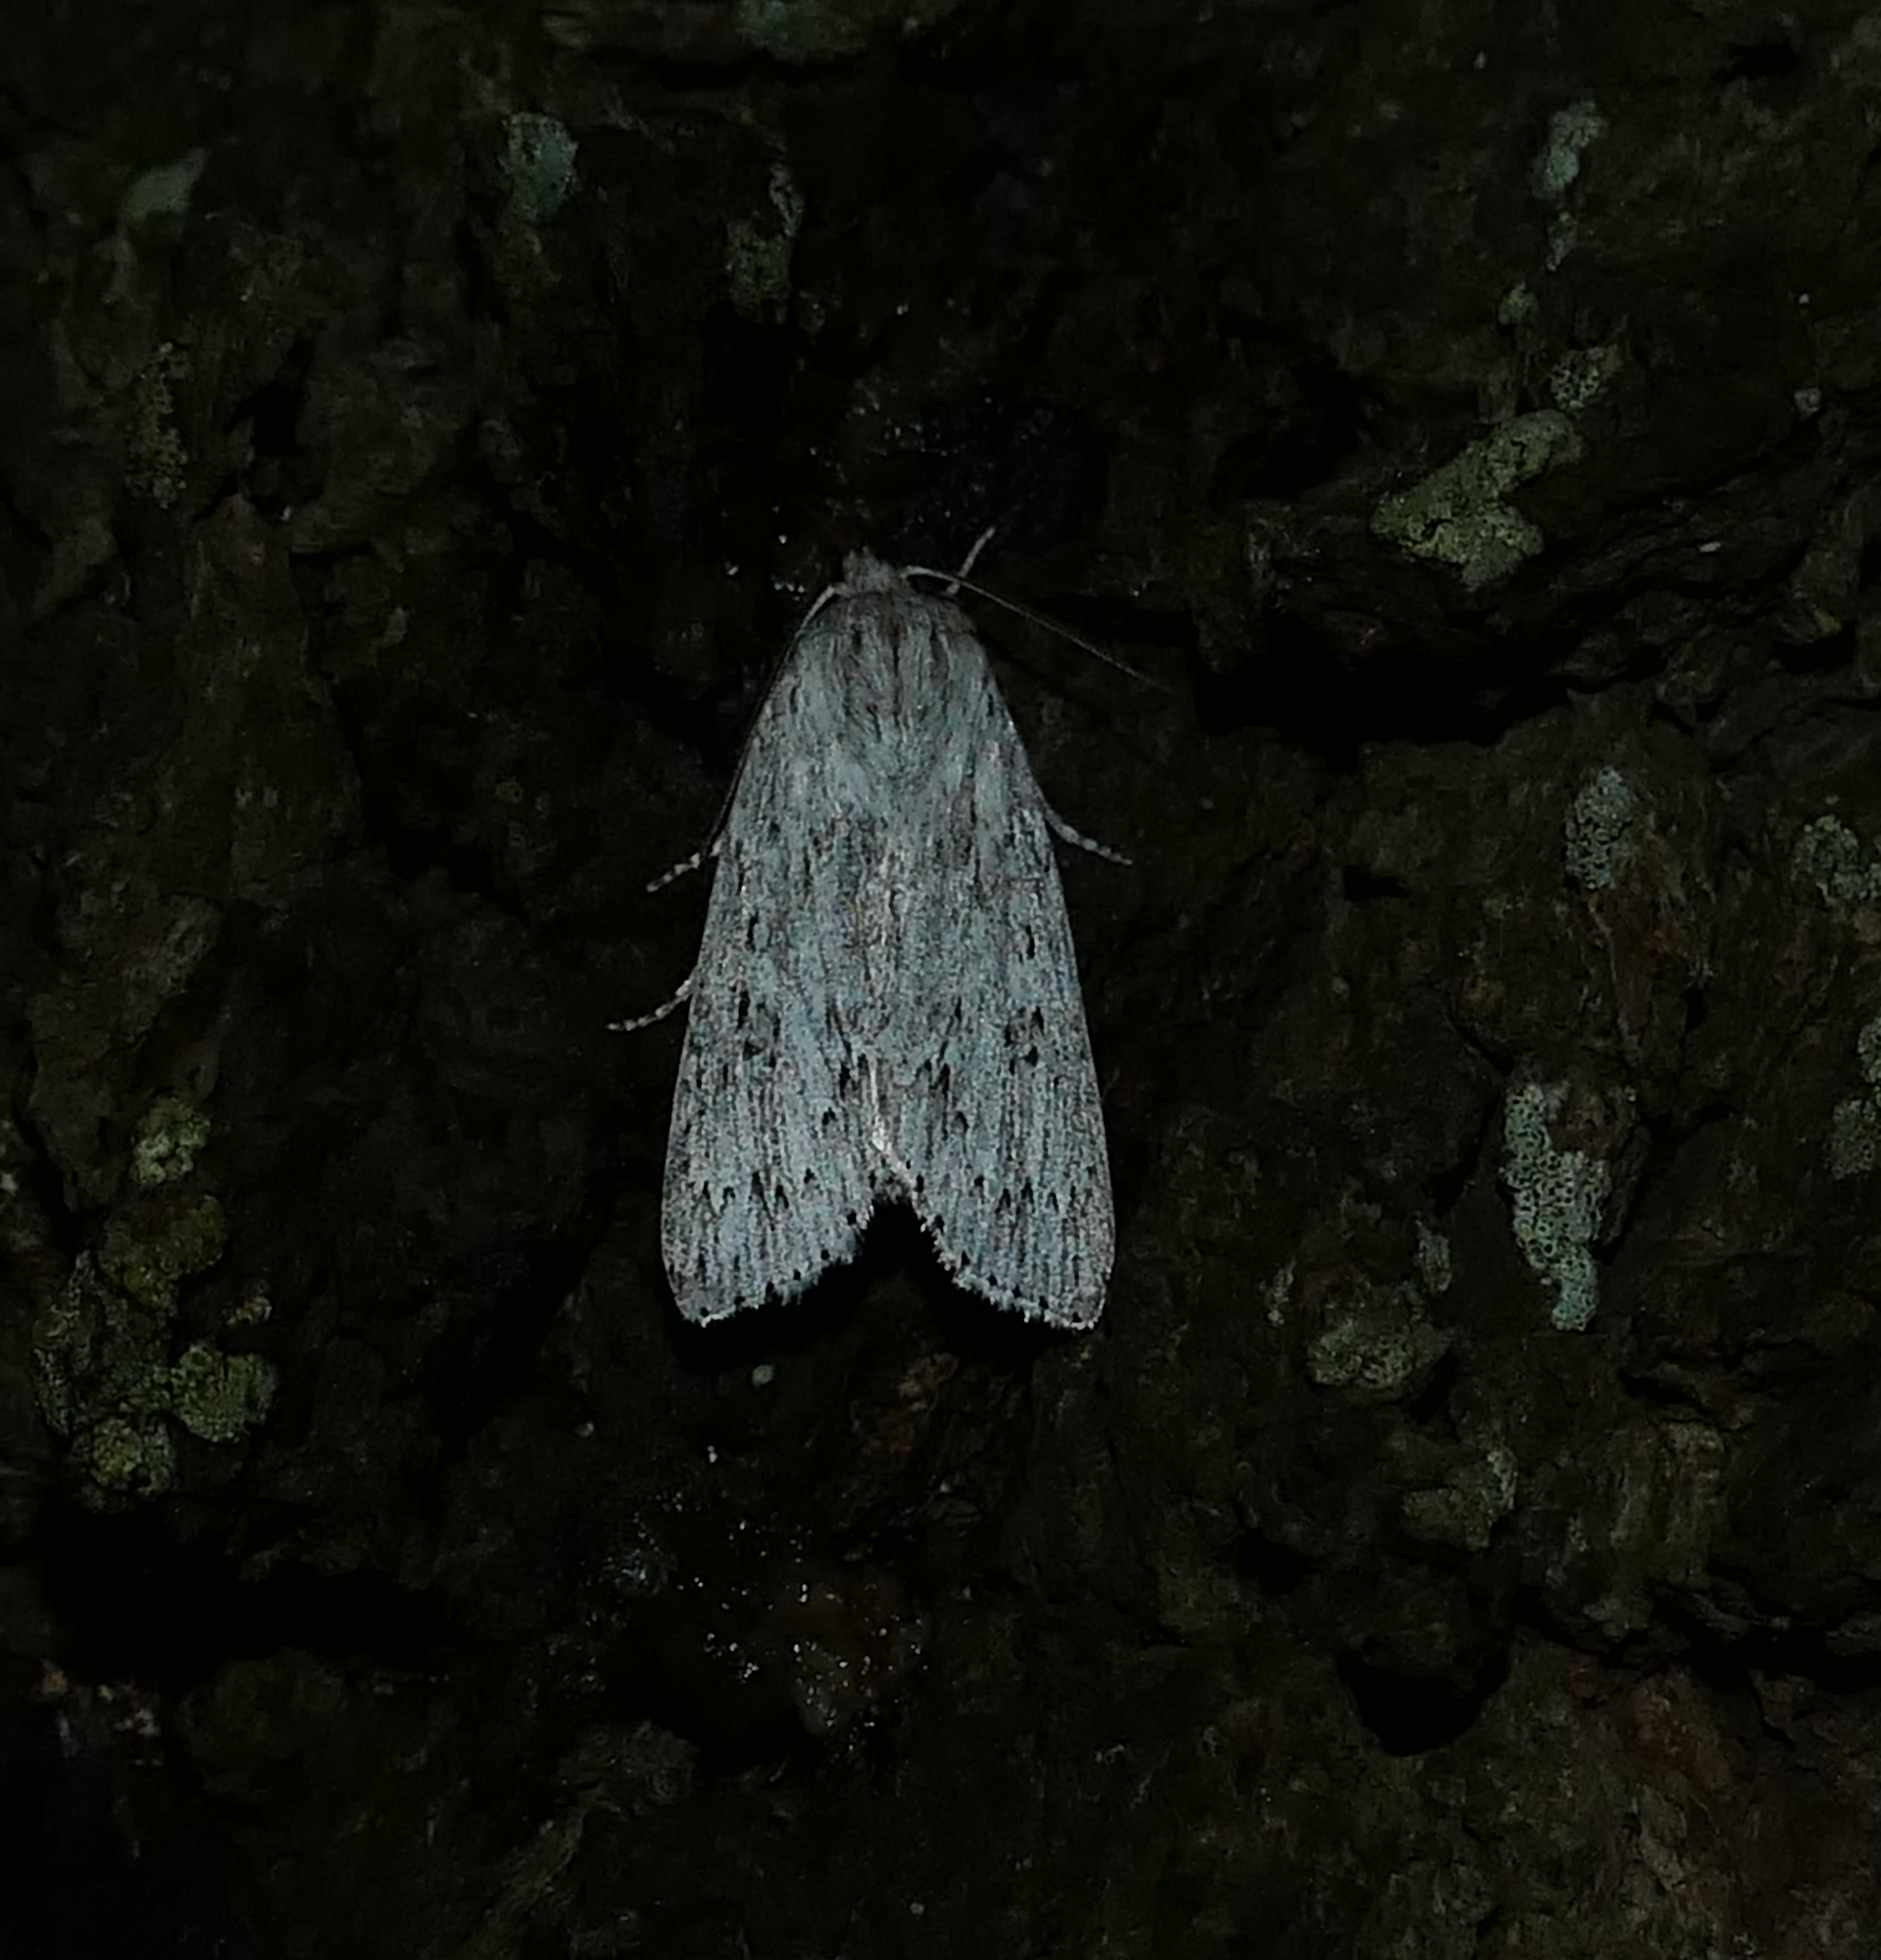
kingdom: Animalia
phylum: Arthropoda
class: Insecta
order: Lepidoptera
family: Noctuidae
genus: Acronicta
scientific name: Acronicta oblinita
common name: Smeared dagger
